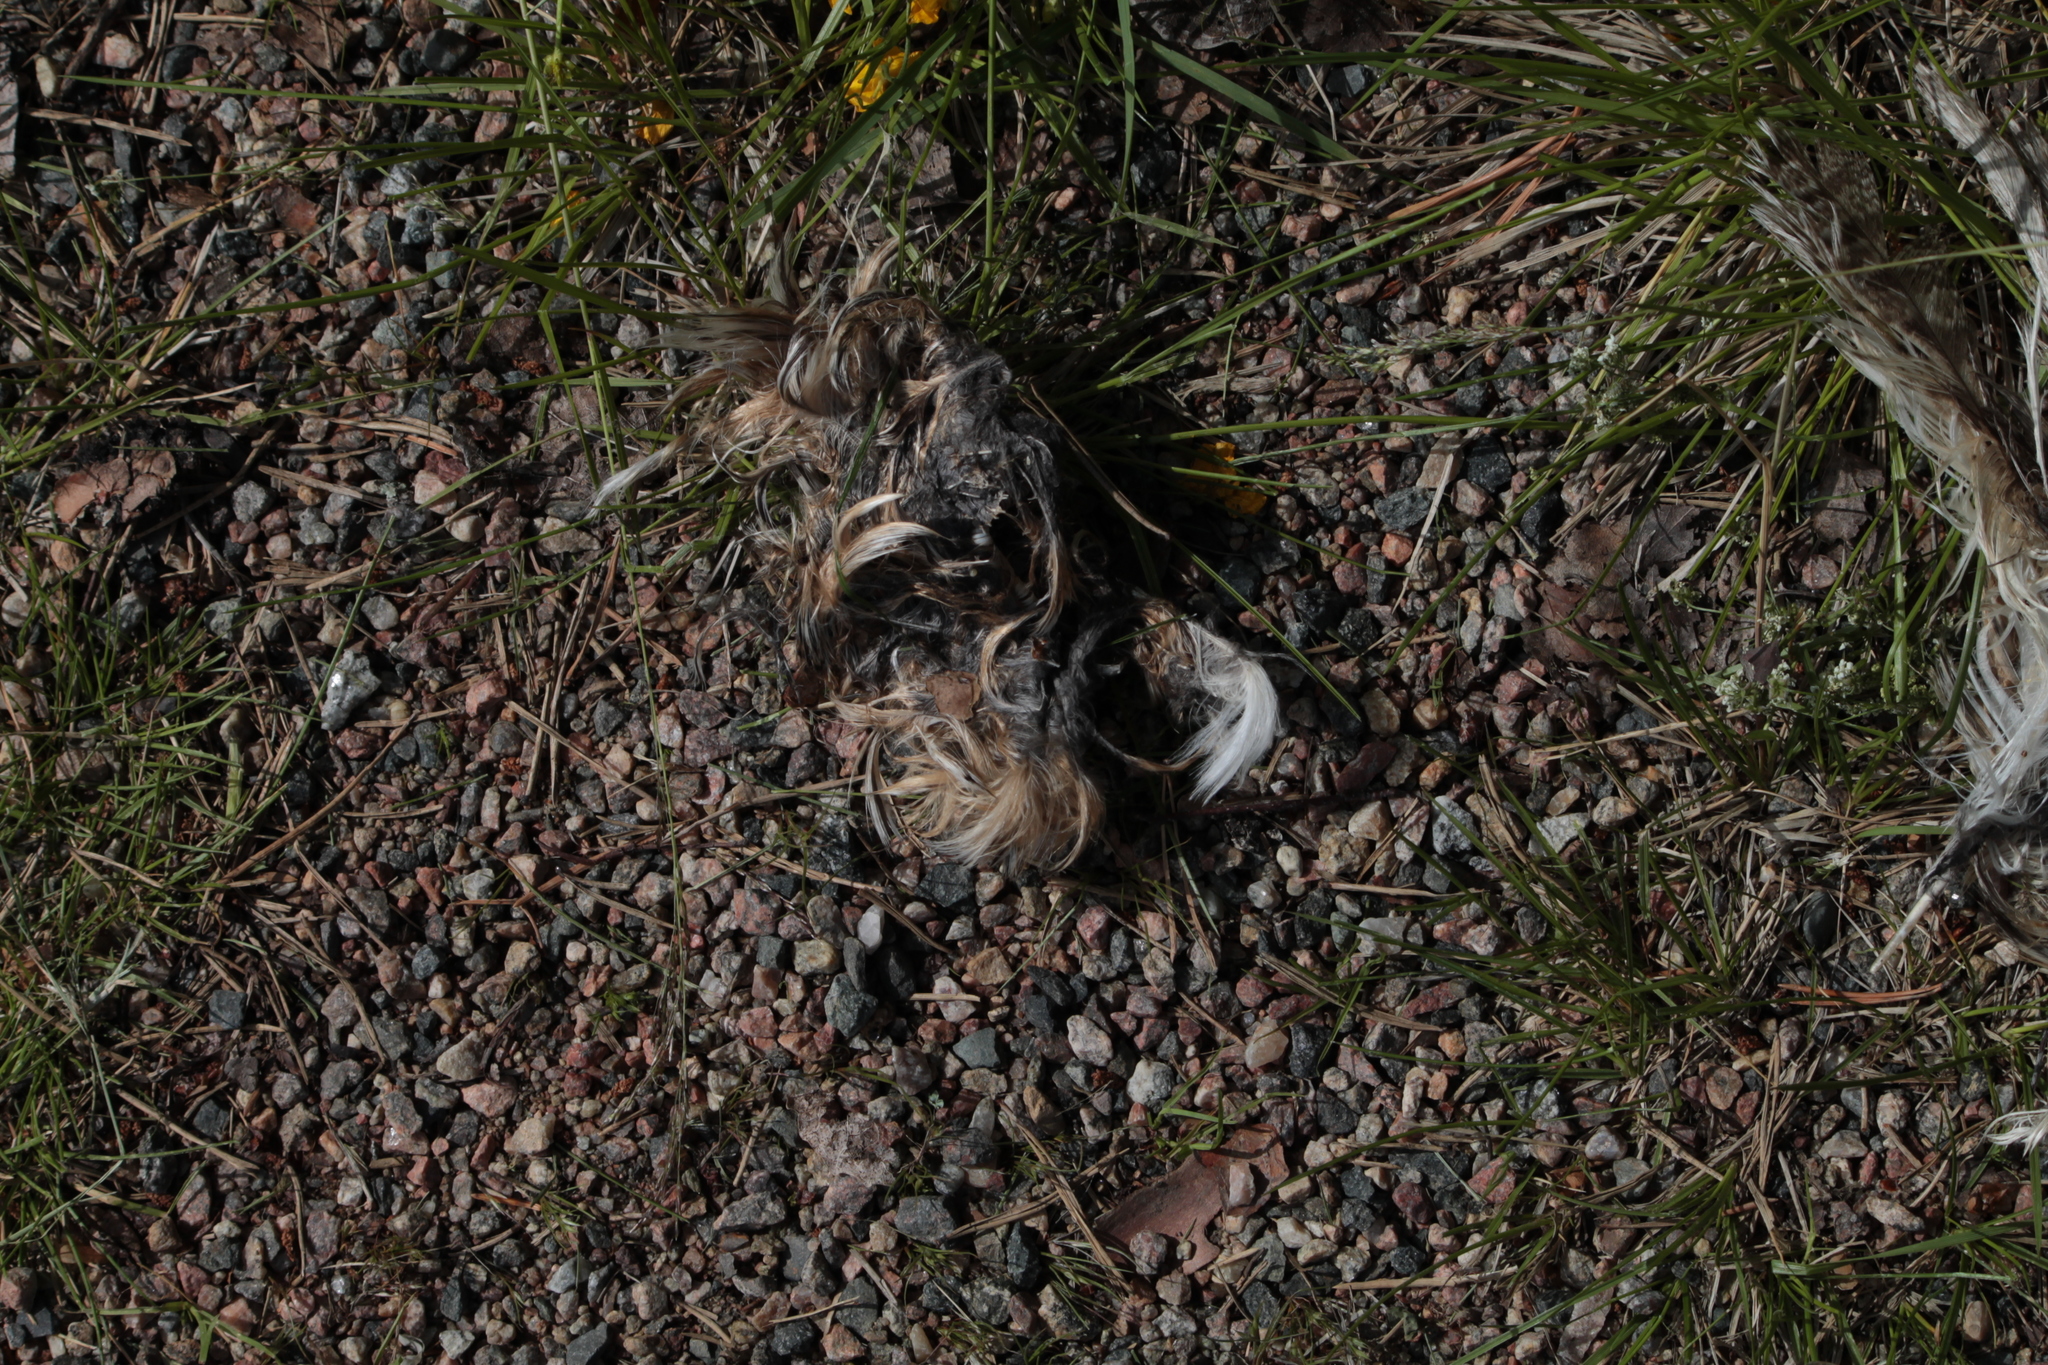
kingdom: Animalia
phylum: Chordata
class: Aves
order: Strigiformes
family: Strigidae
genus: Asio
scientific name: Asio otus
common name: Long-eared owl
